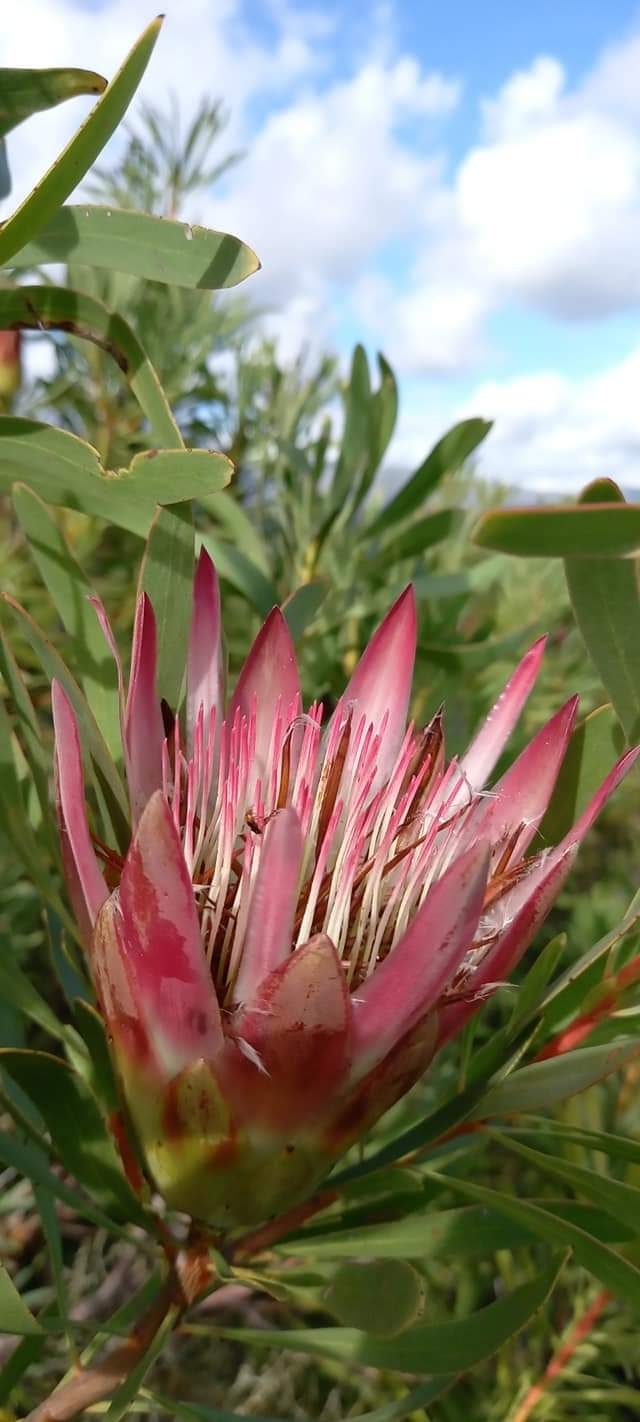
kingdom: Plantae
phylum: Tracheophyta
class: Magnoliopsida
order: Proteales
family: Proteaceae
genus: Protea
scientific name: Protea repens
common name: Sugarbush
